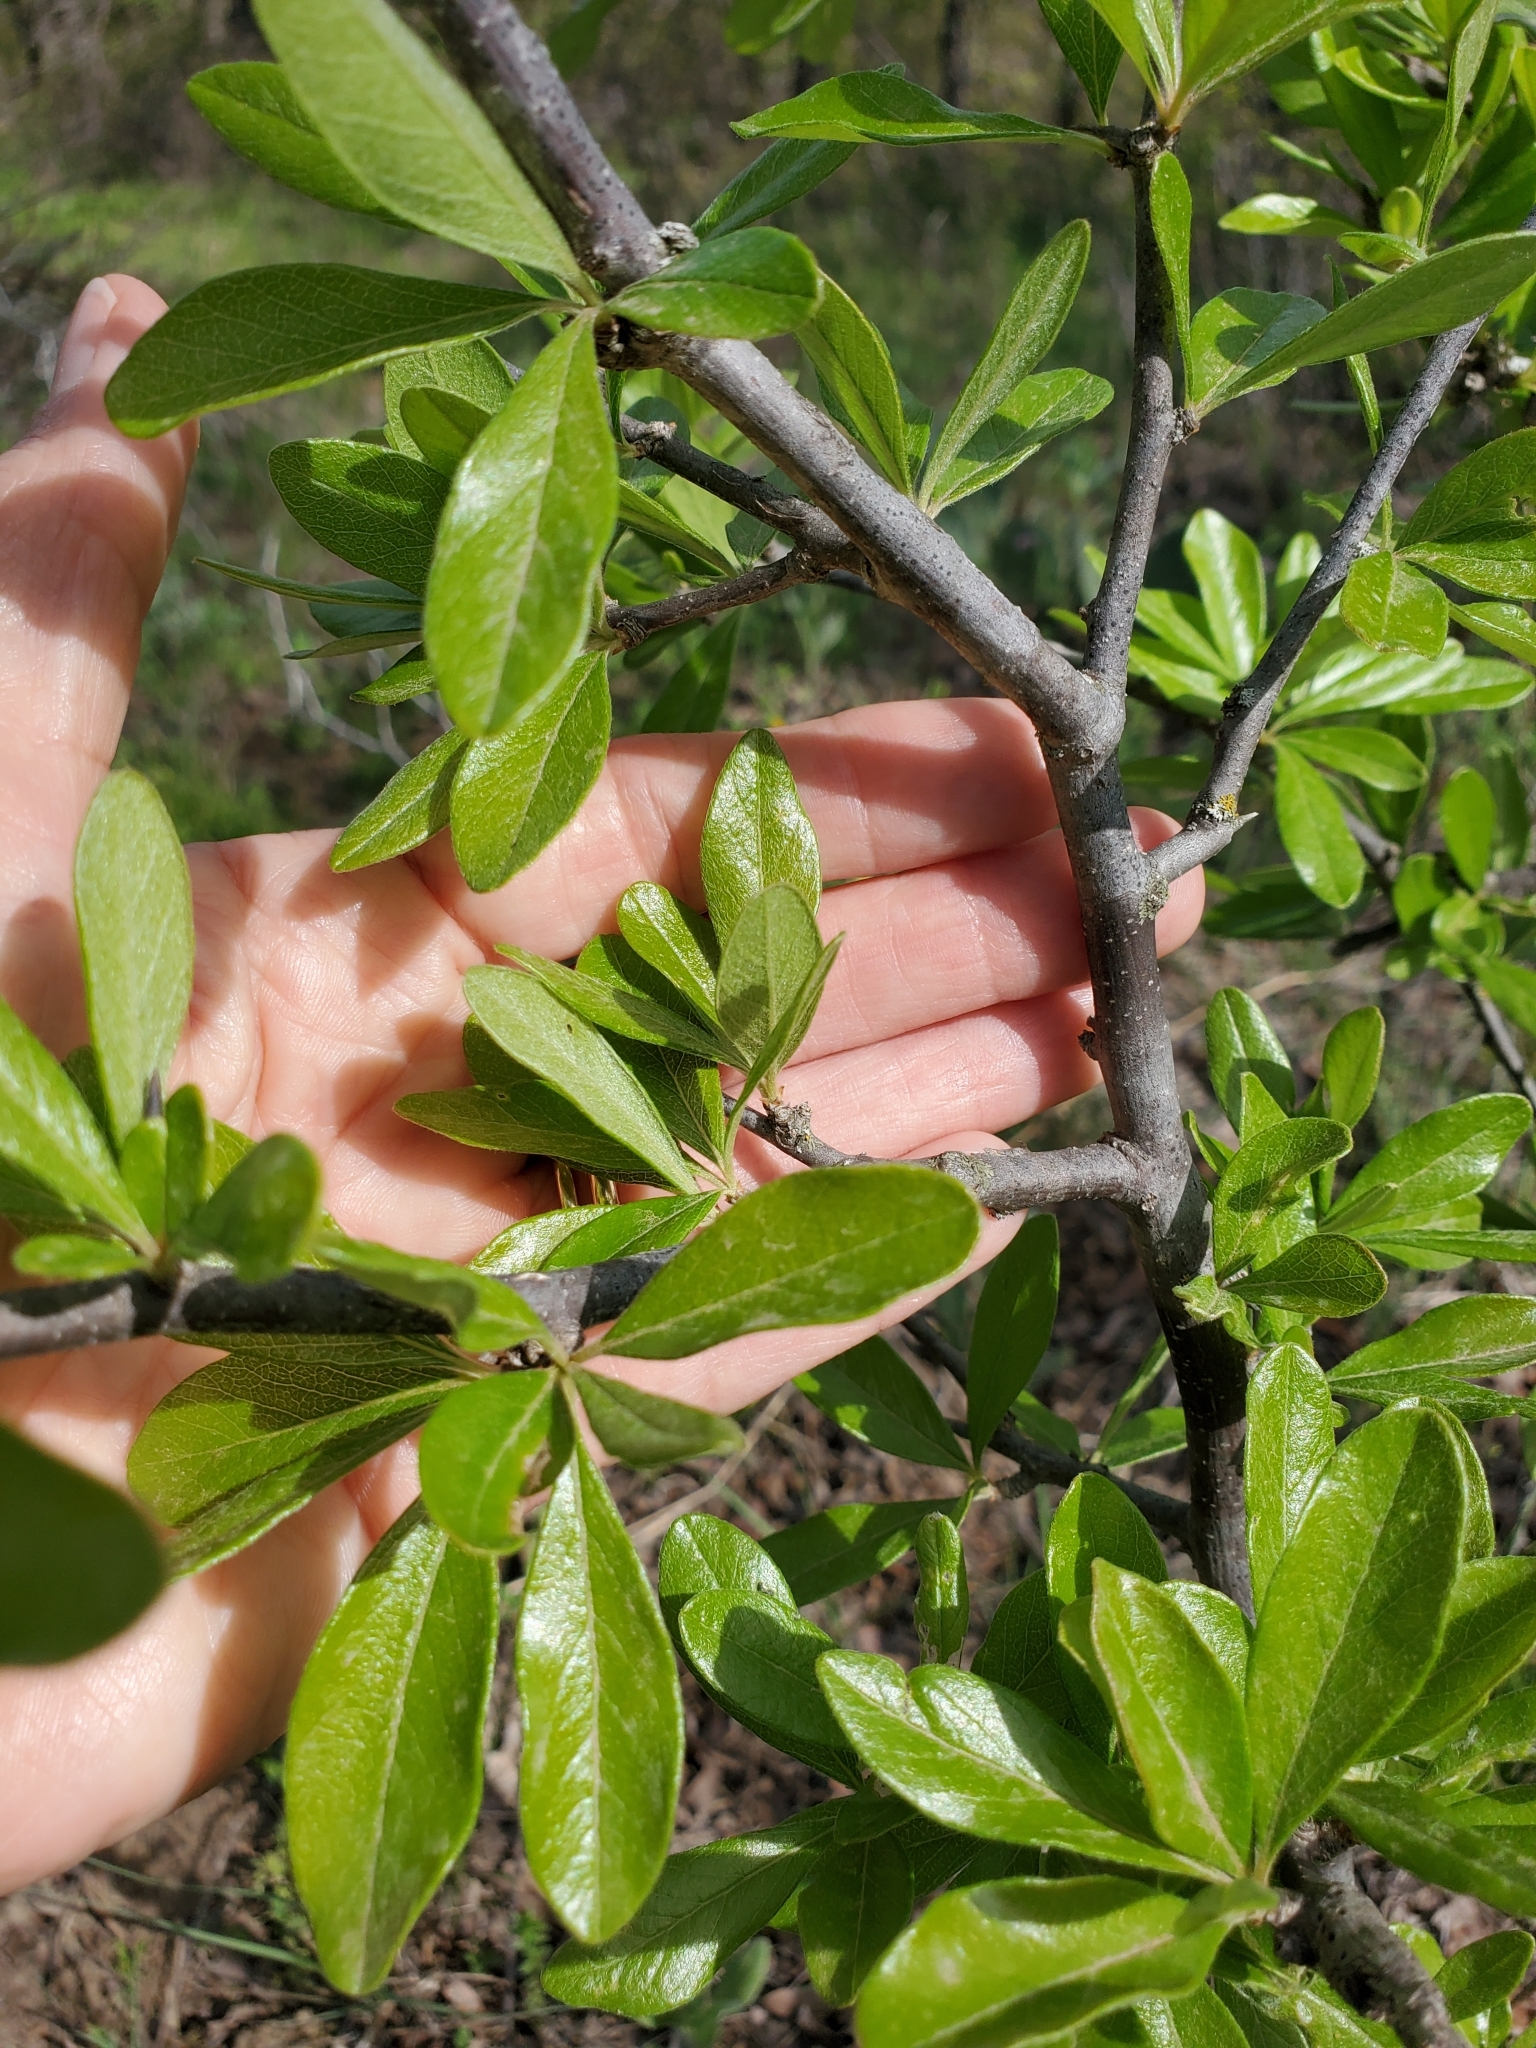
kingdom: Plantae
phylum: Tracheophyta
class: Magnoliopsida
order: Ericales
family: Sapotaceae
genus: Sideroxylon
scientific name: Sideroxylon lanuginosum
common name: Chittamwood
